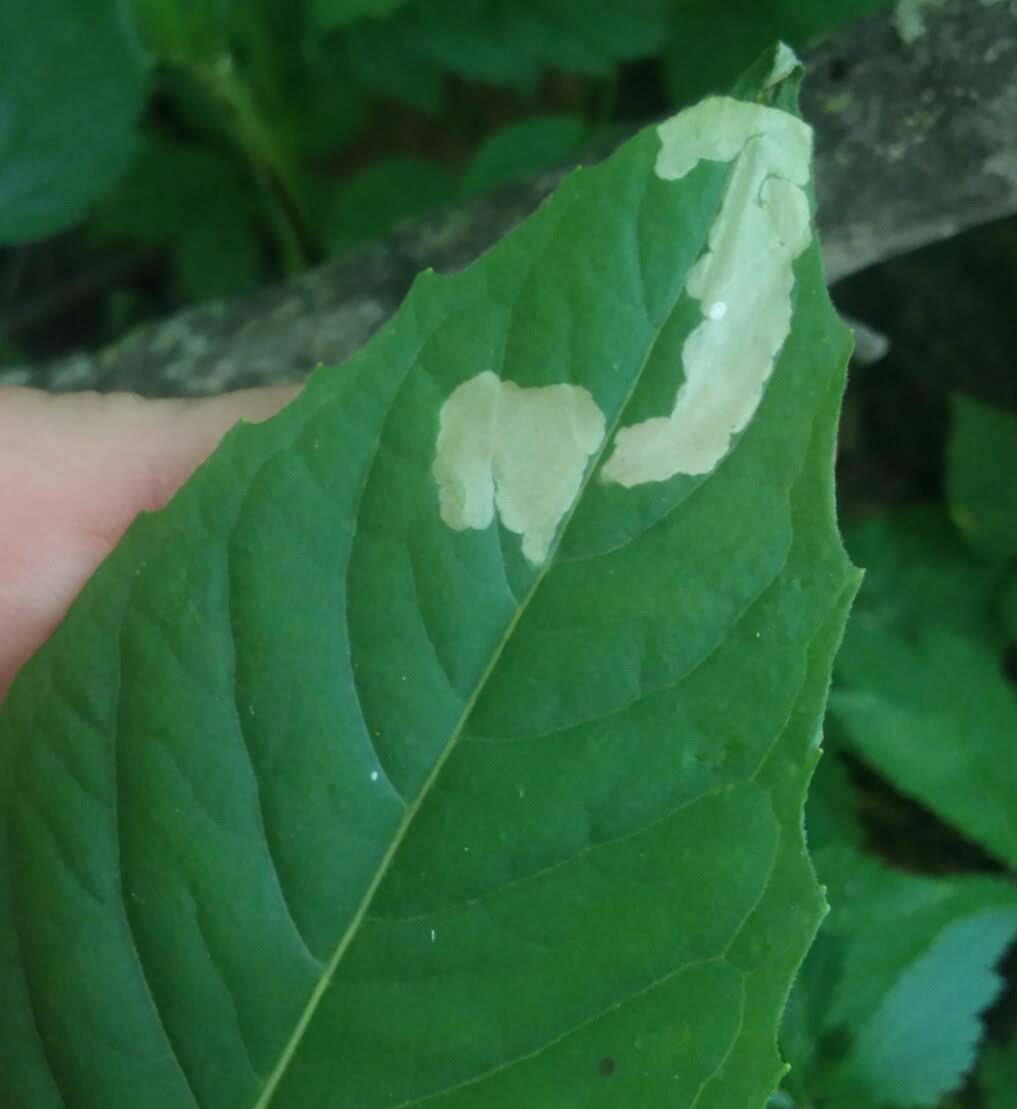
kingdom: Animalia
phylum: Arthropoda
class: Insecta
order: Lepidoptera
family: Momphidae
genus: Mompha
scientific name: Mompha terminella
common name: Enchanters cosmet
